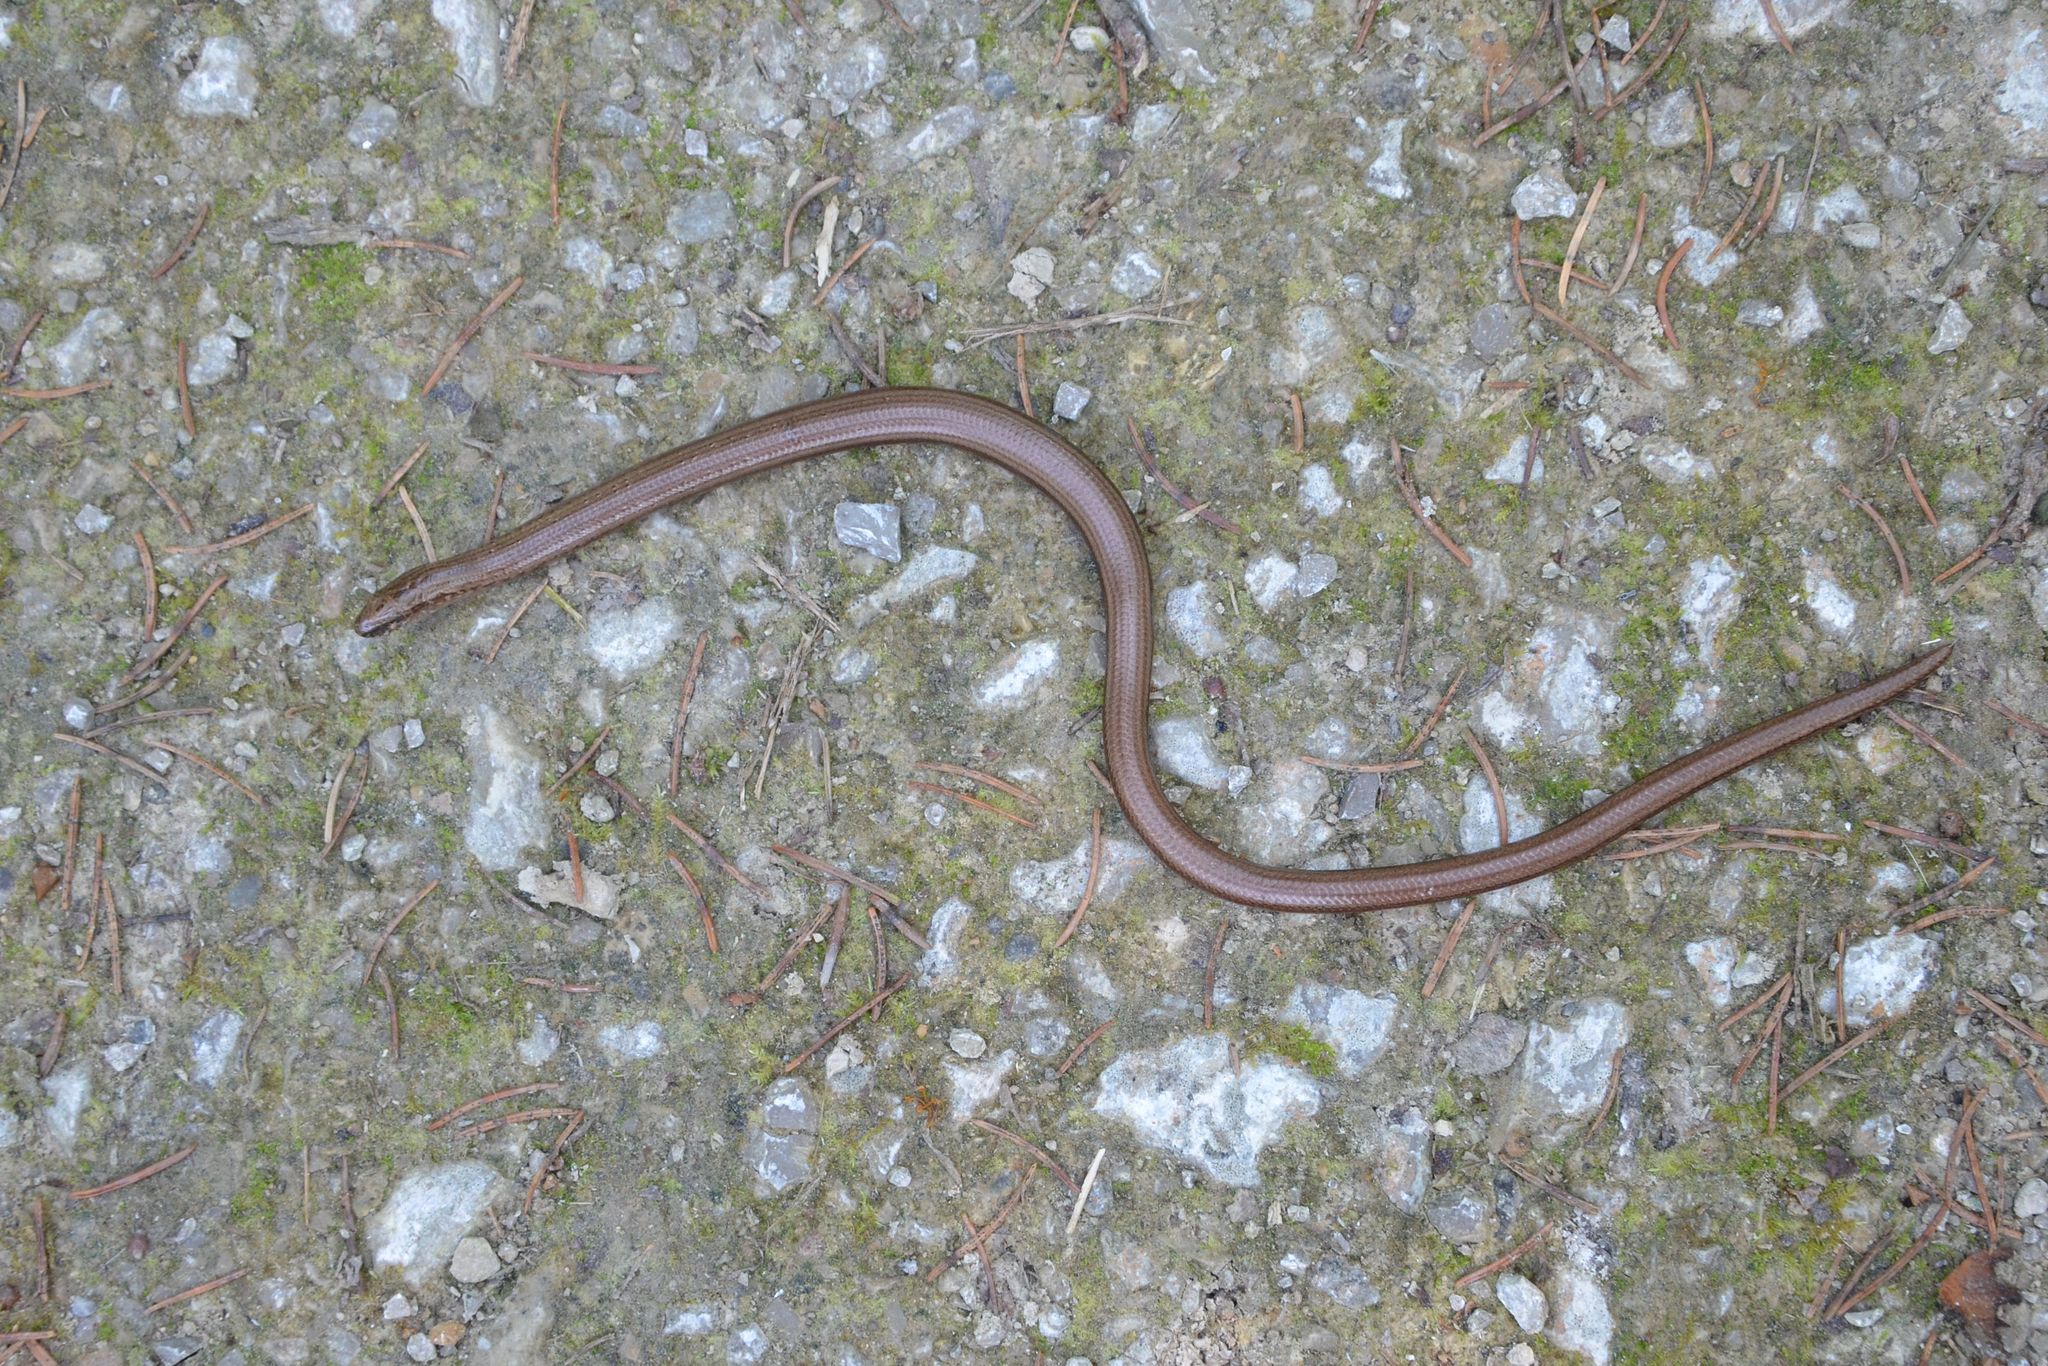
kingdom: Animalia
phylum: Chordata
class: Squamata
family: Anguidae
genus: Anguis
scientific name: Anguis fragilis
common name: Slow worm
